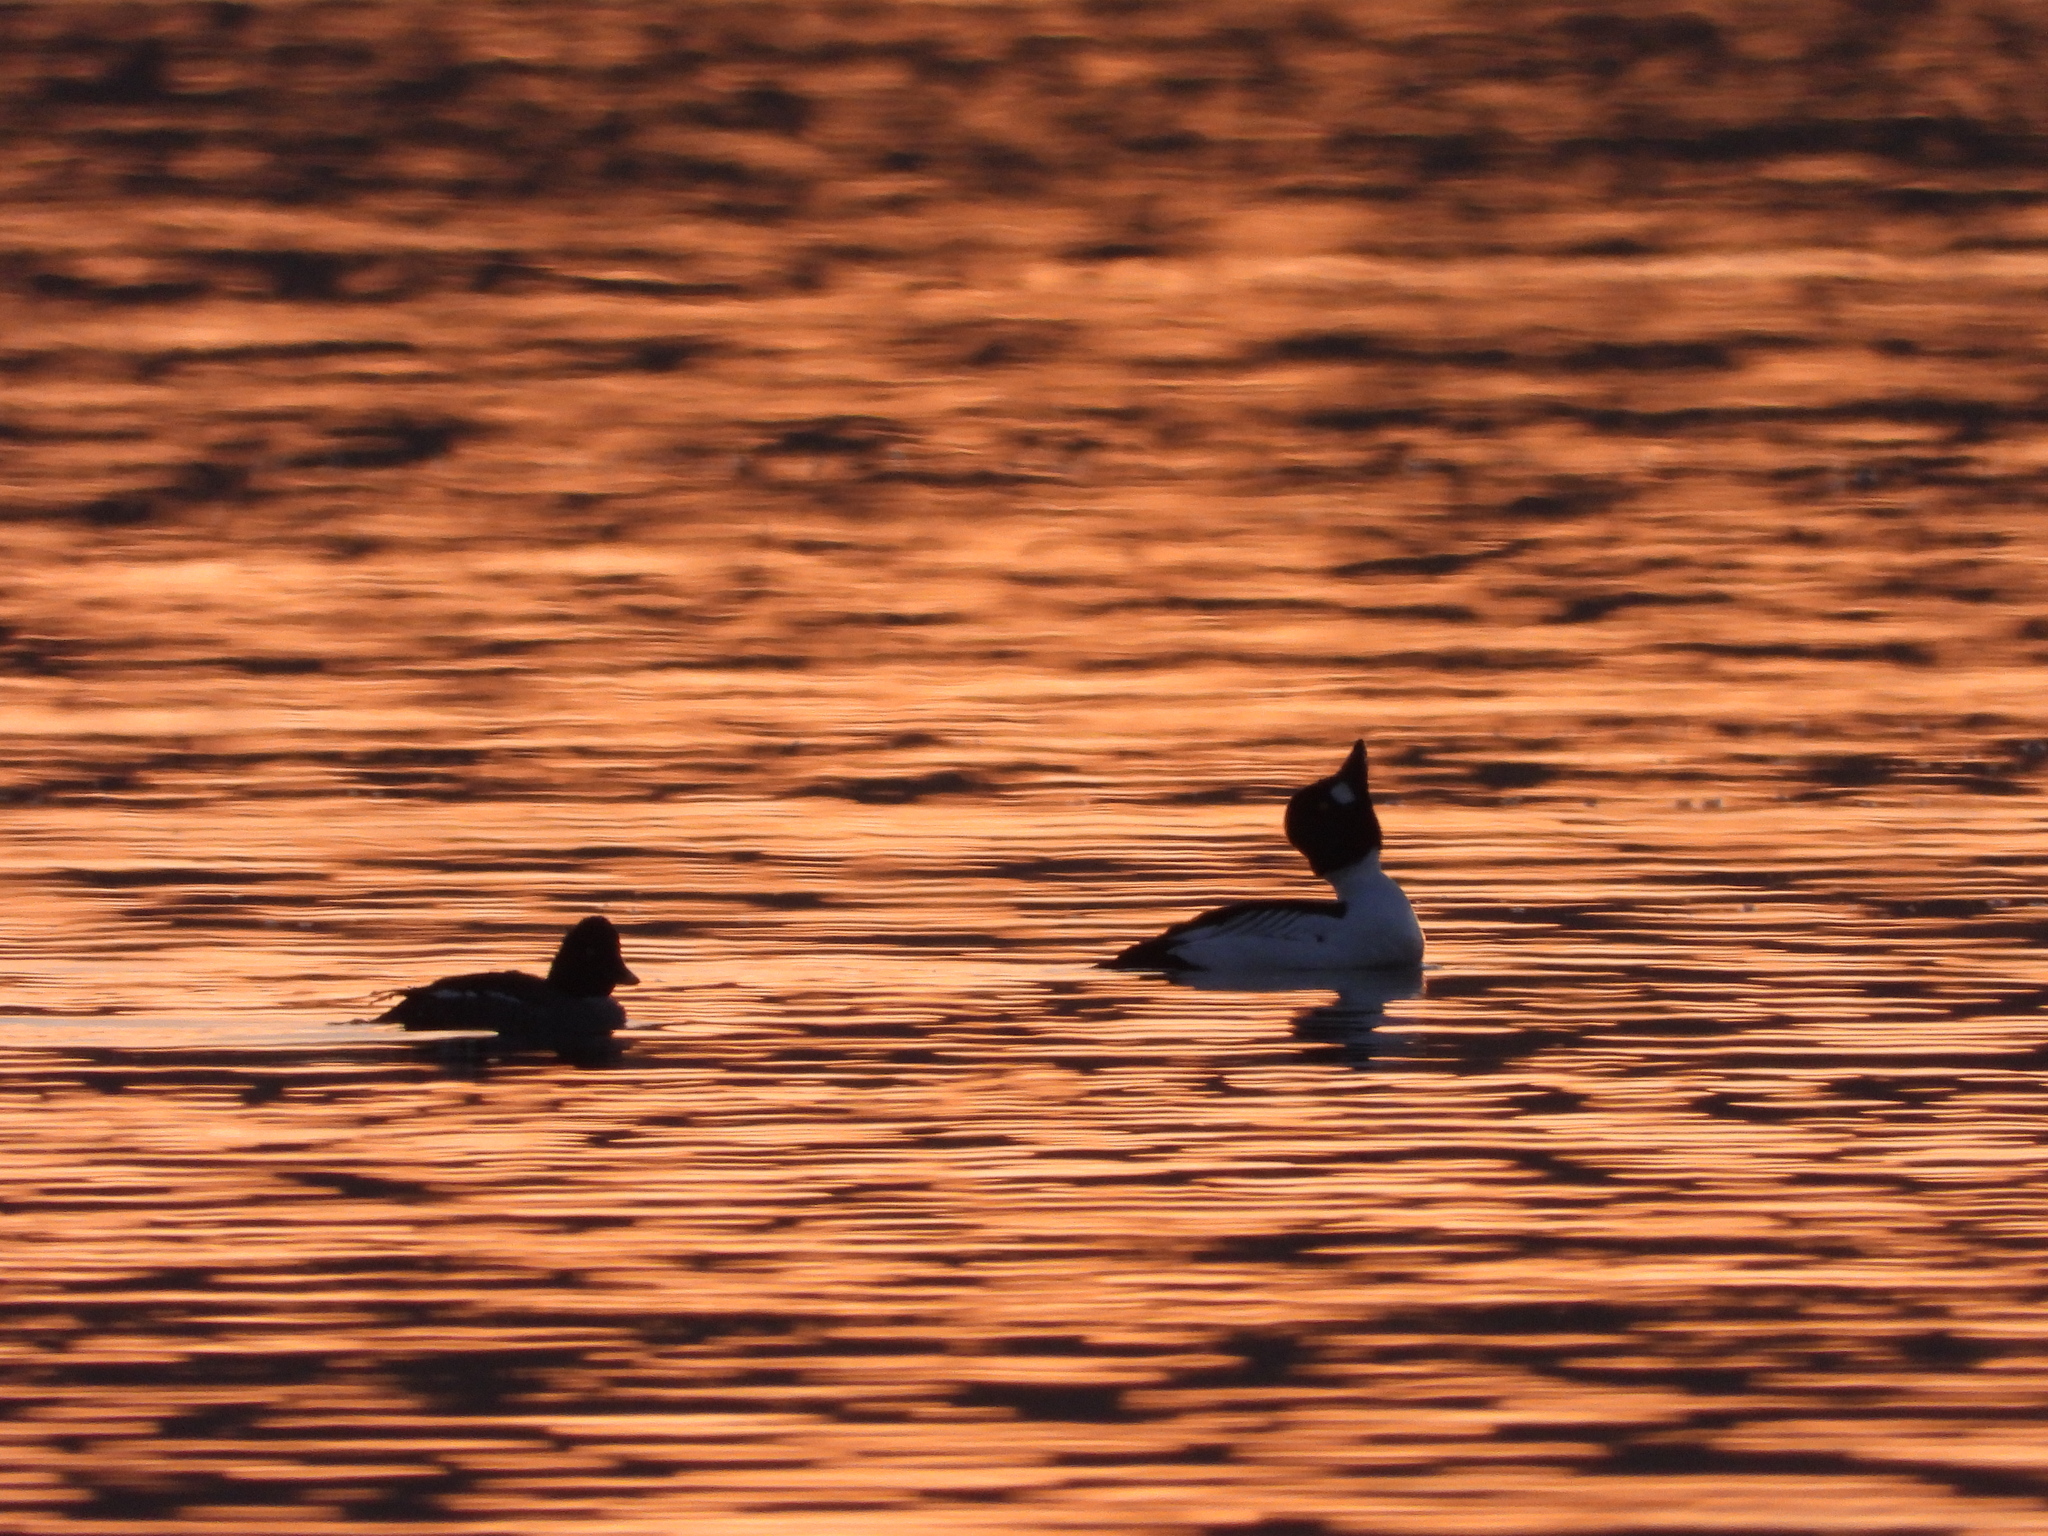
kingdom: Animalia
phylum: Chordata
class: Aves
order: Anseriformes
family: Anatidae
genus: Bucephala
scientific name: Bucephala clangula
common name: Common goldeneye
